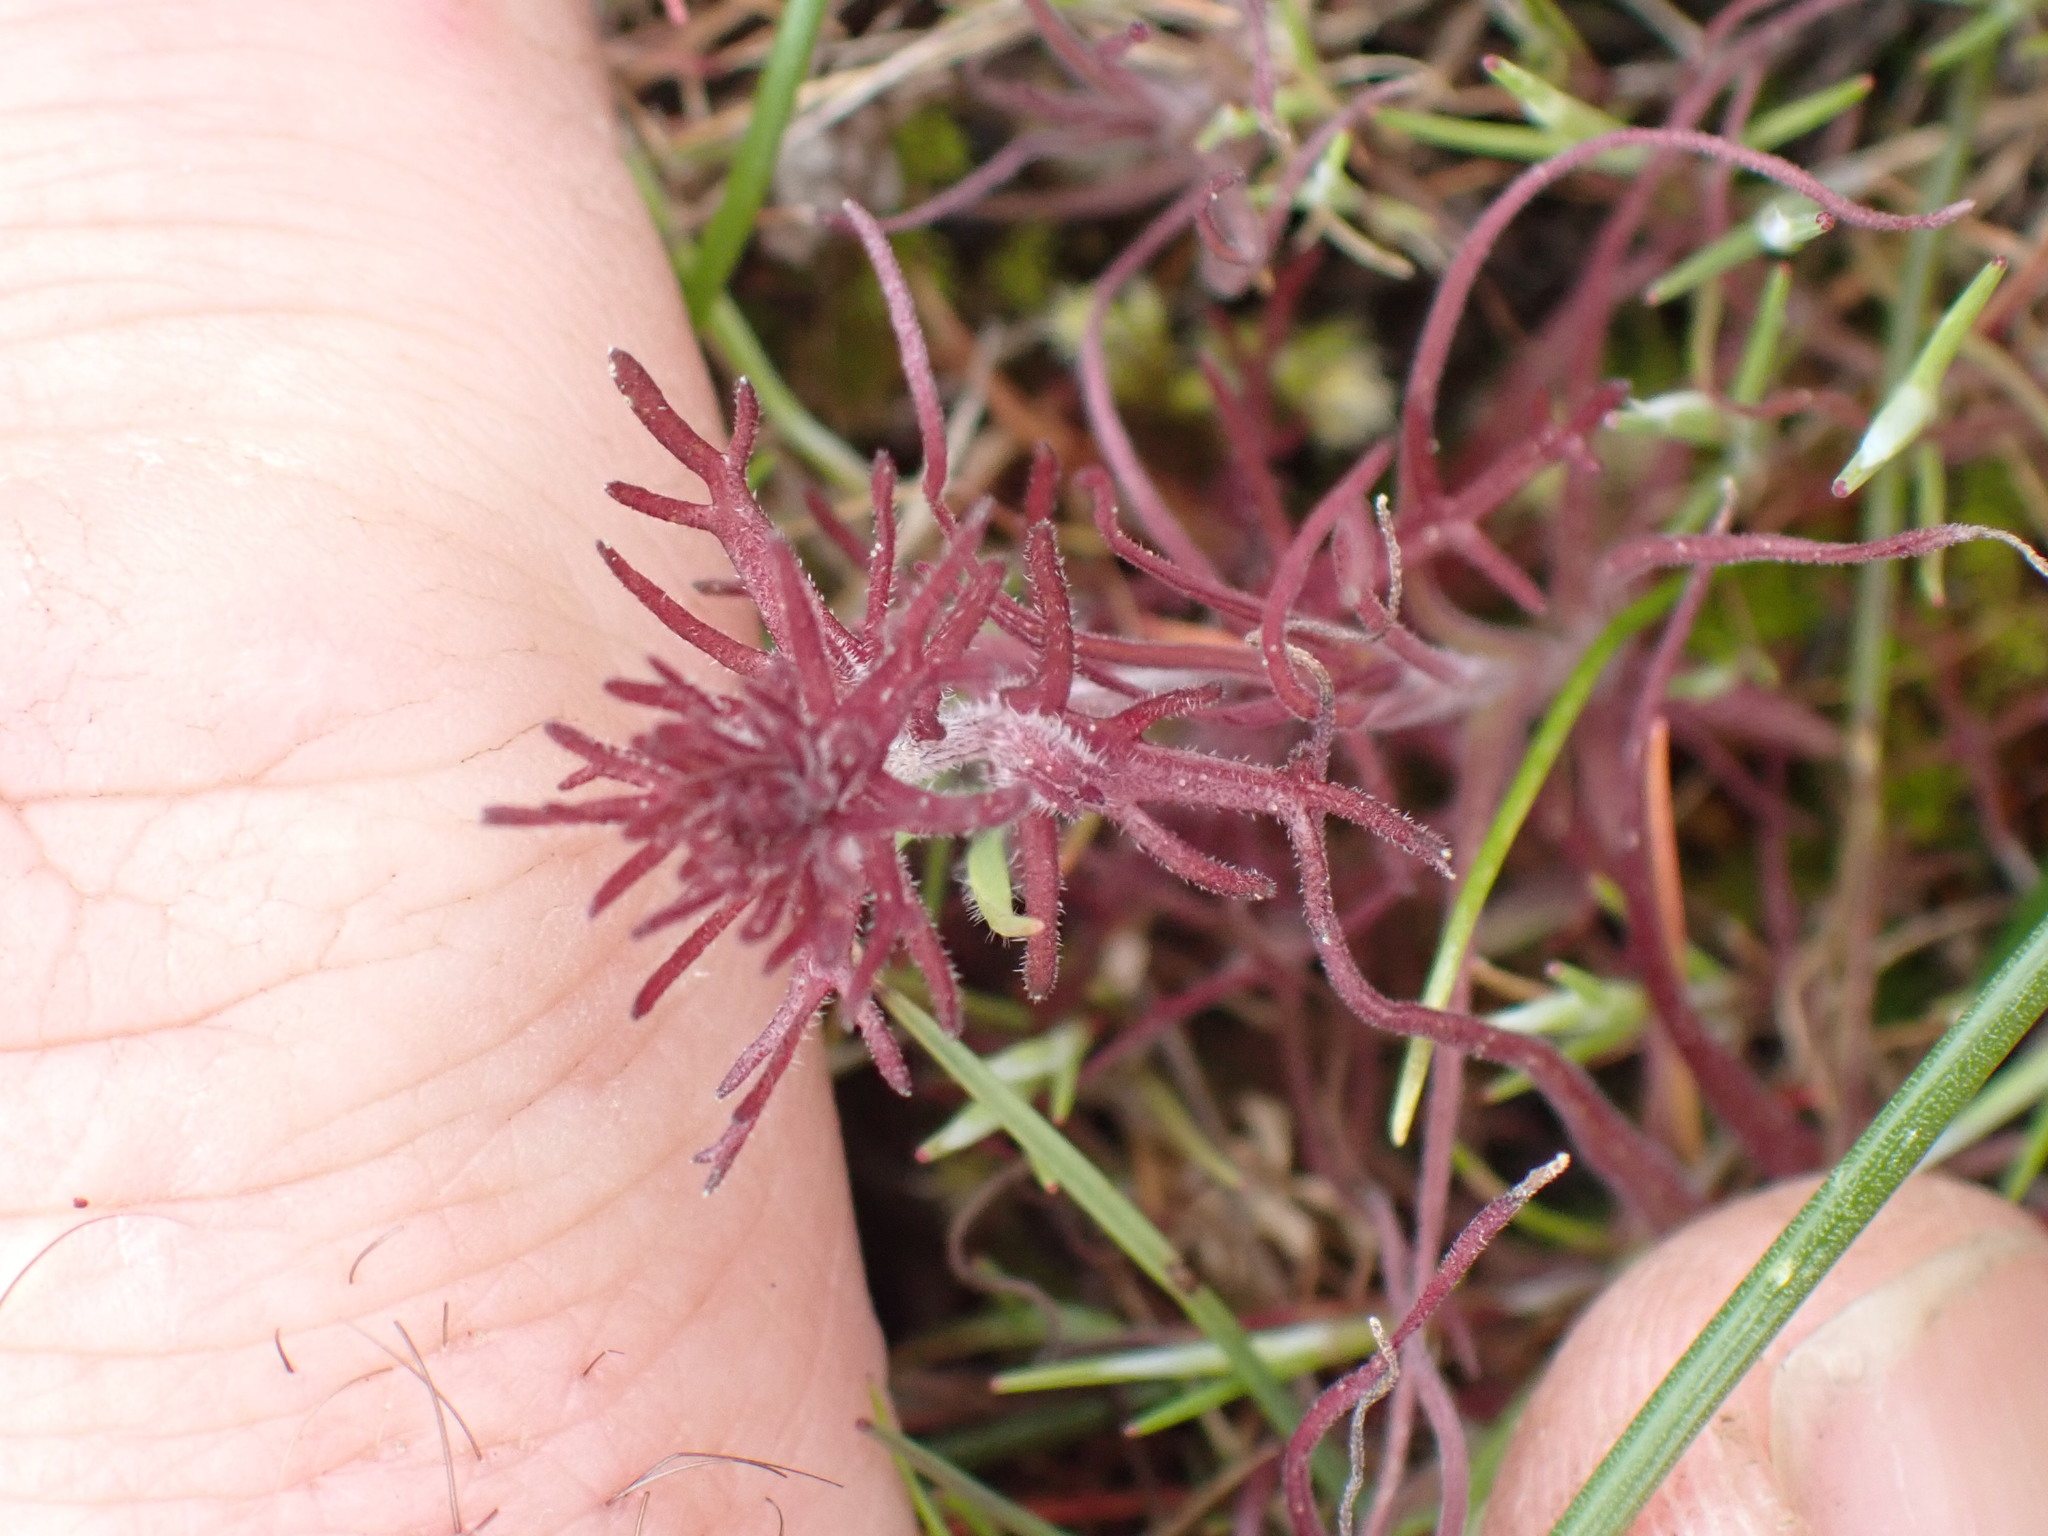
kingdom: Plantae
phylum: Tracheophyta
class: Magnoliopsida
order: Lamiales
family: Orobanchaceae
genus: Triphysaria
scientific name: Triphysaria pusilla
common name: Dwarf false owl-clover
